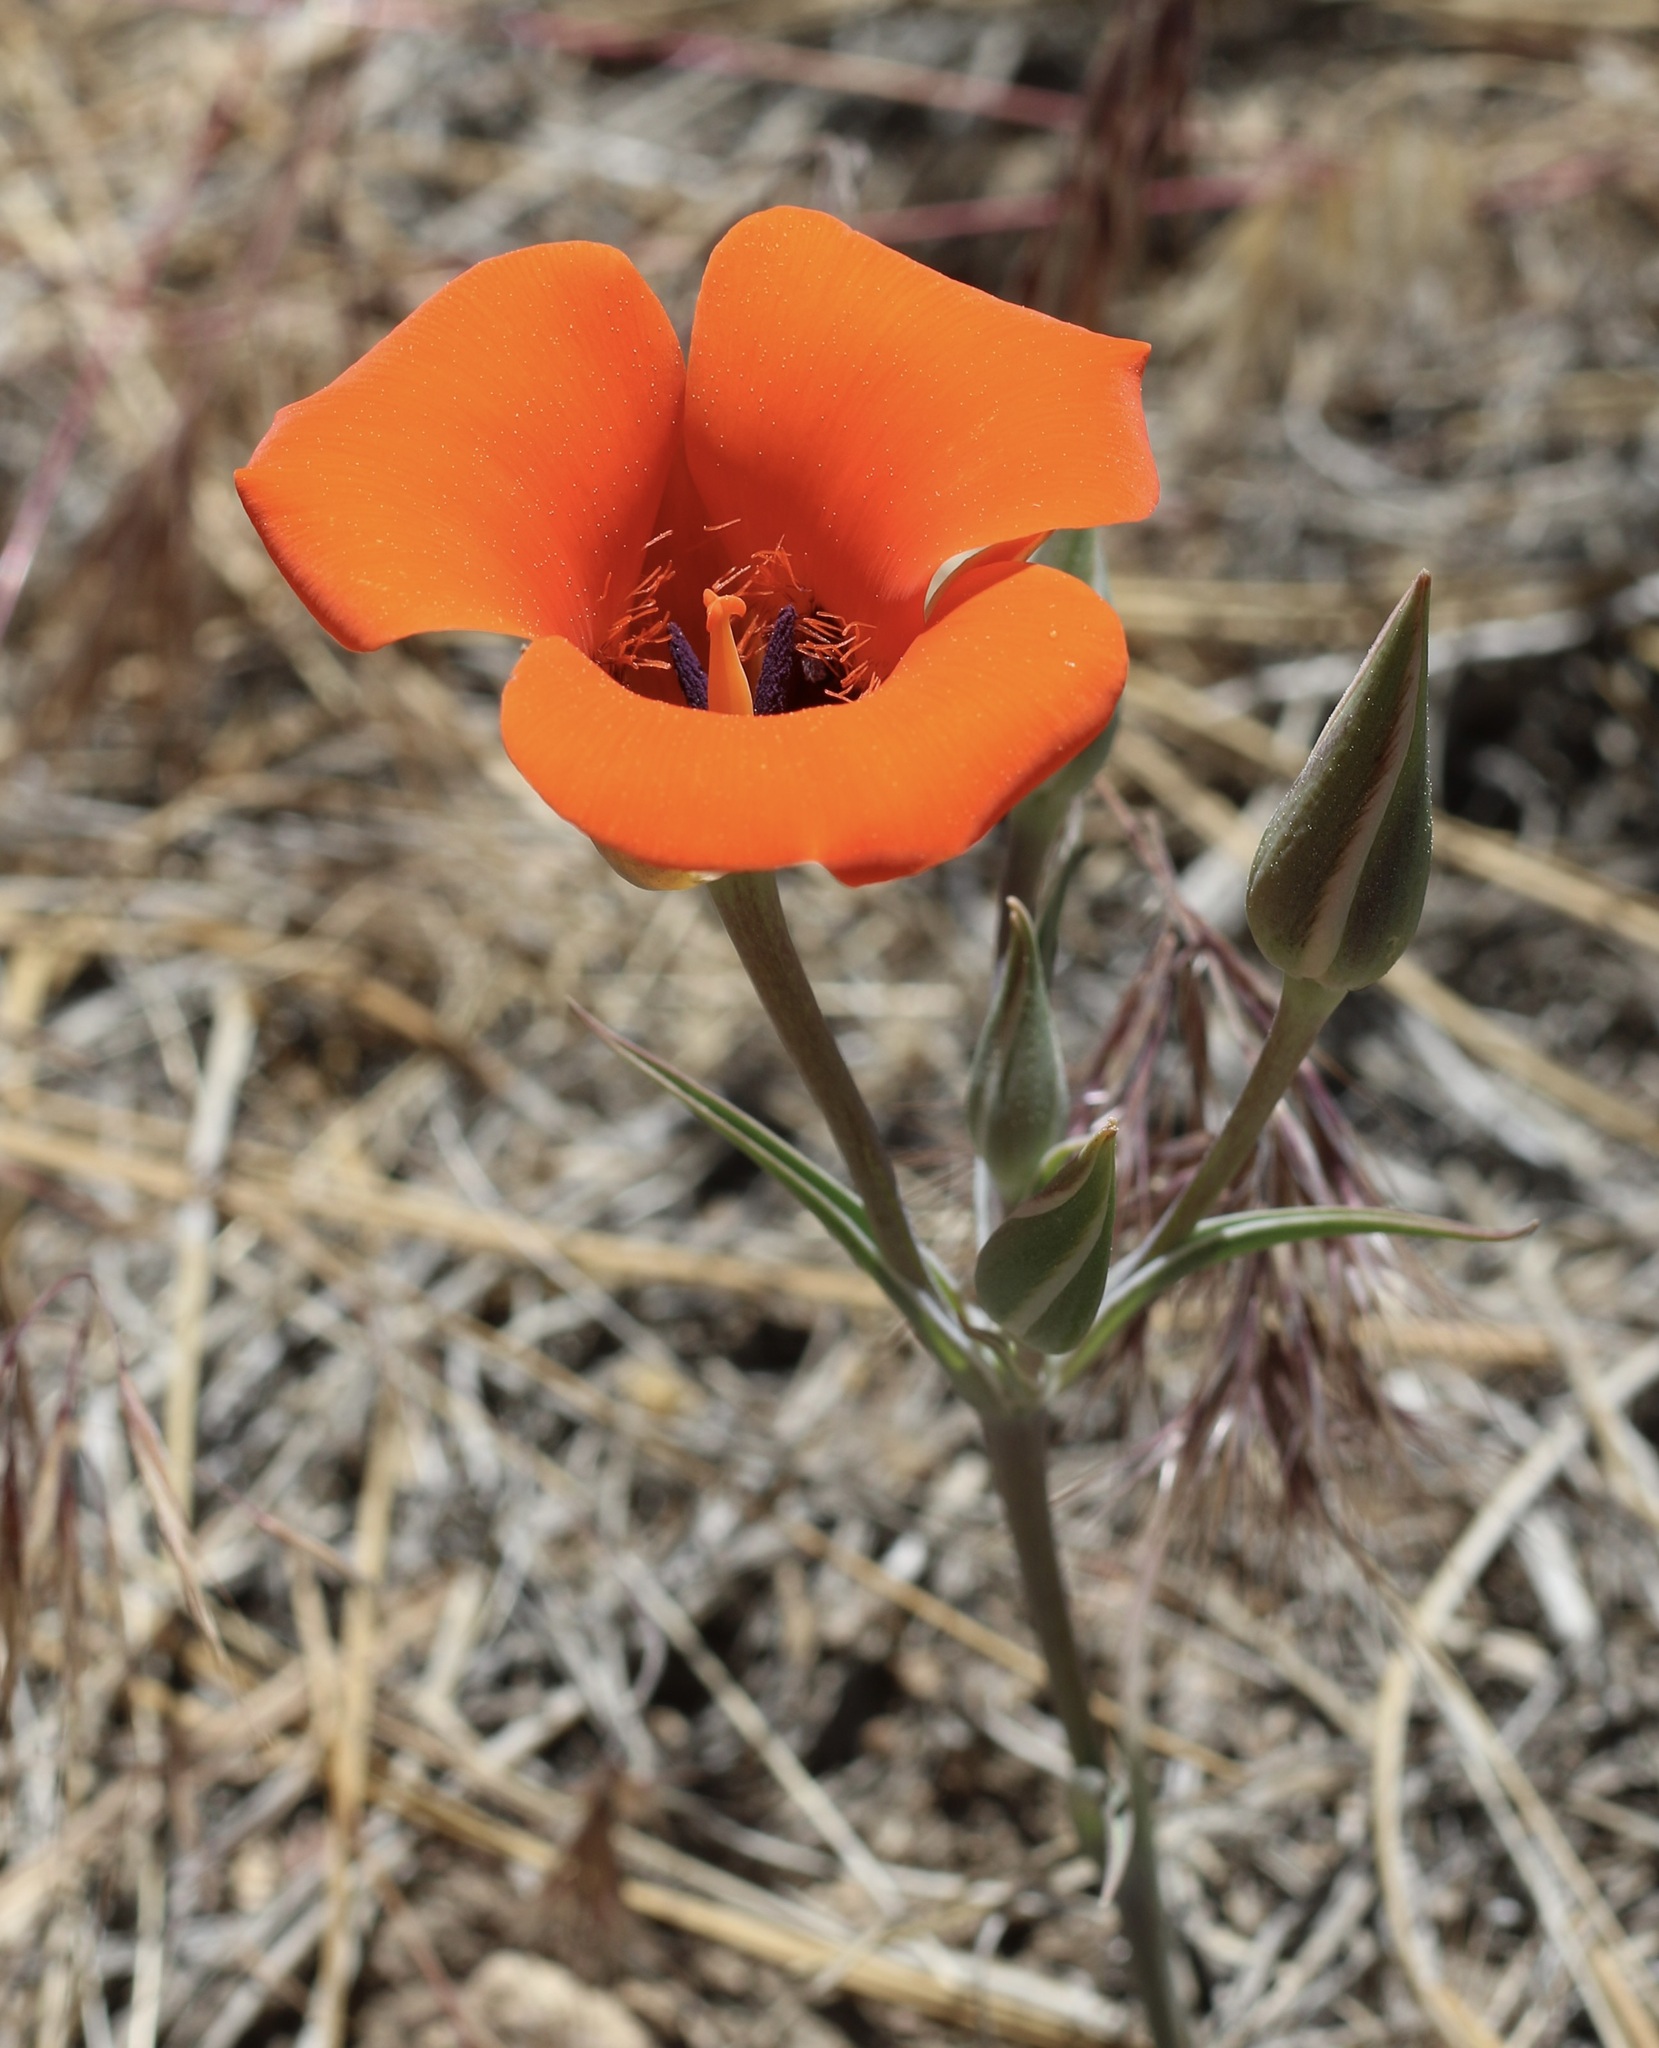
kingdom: Plantae
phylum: Tracheophyta
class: Liliopsida
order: Liliales
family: Liliaceae
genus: Calochortus
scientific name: Calochortus kennedyi
